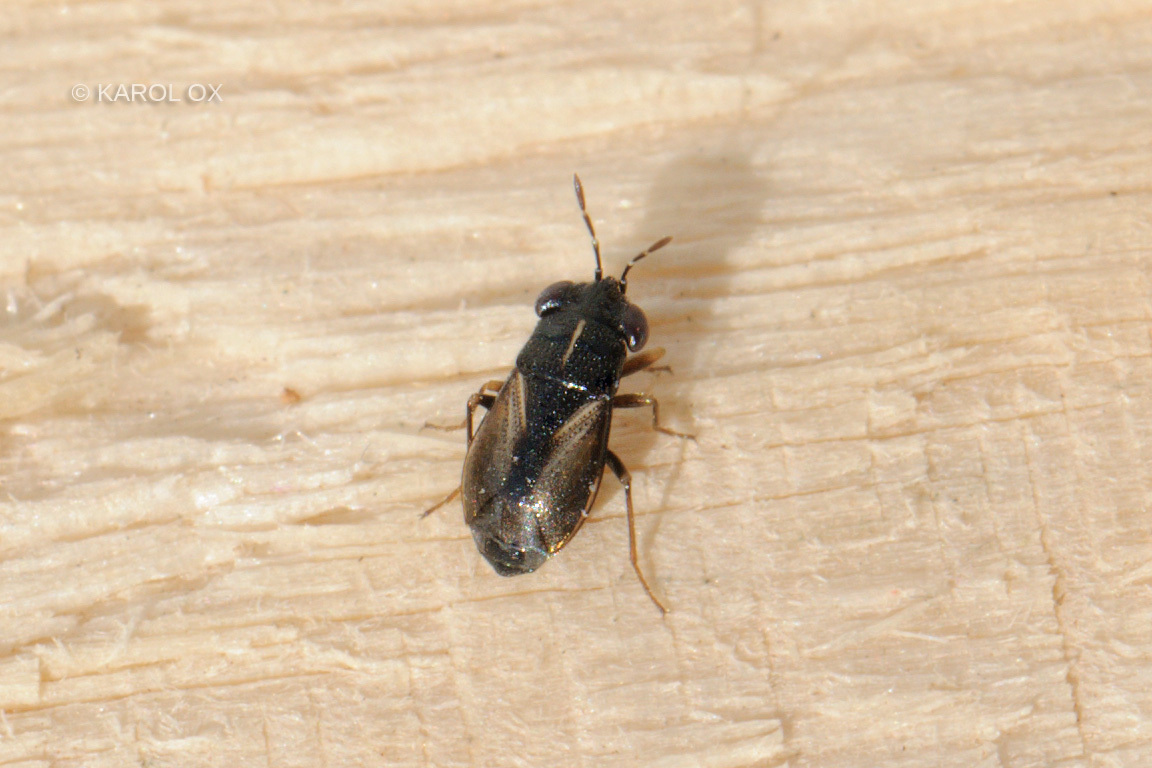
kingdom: Animalia
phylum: Arthropoda
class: Insecta
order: Hemiptera
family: Geocoridae
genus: Geocoris
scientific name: Geocoris ater
